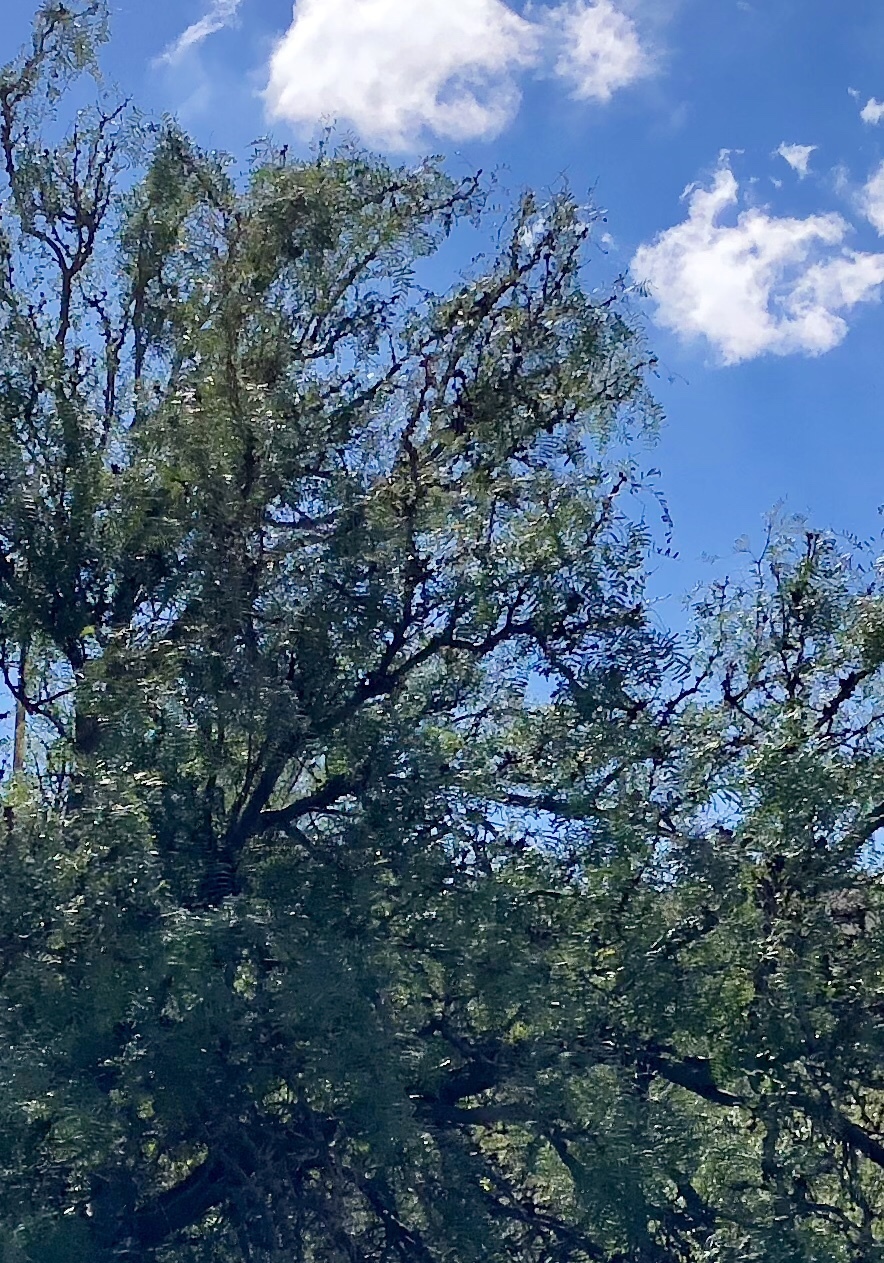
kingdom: Plantae
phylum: Tracheophyta
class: Magnoliopsida
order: Fabales
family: Fabaceae
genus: Prosopis
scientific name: Prosopis glandulosa
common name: Honey mesquite
